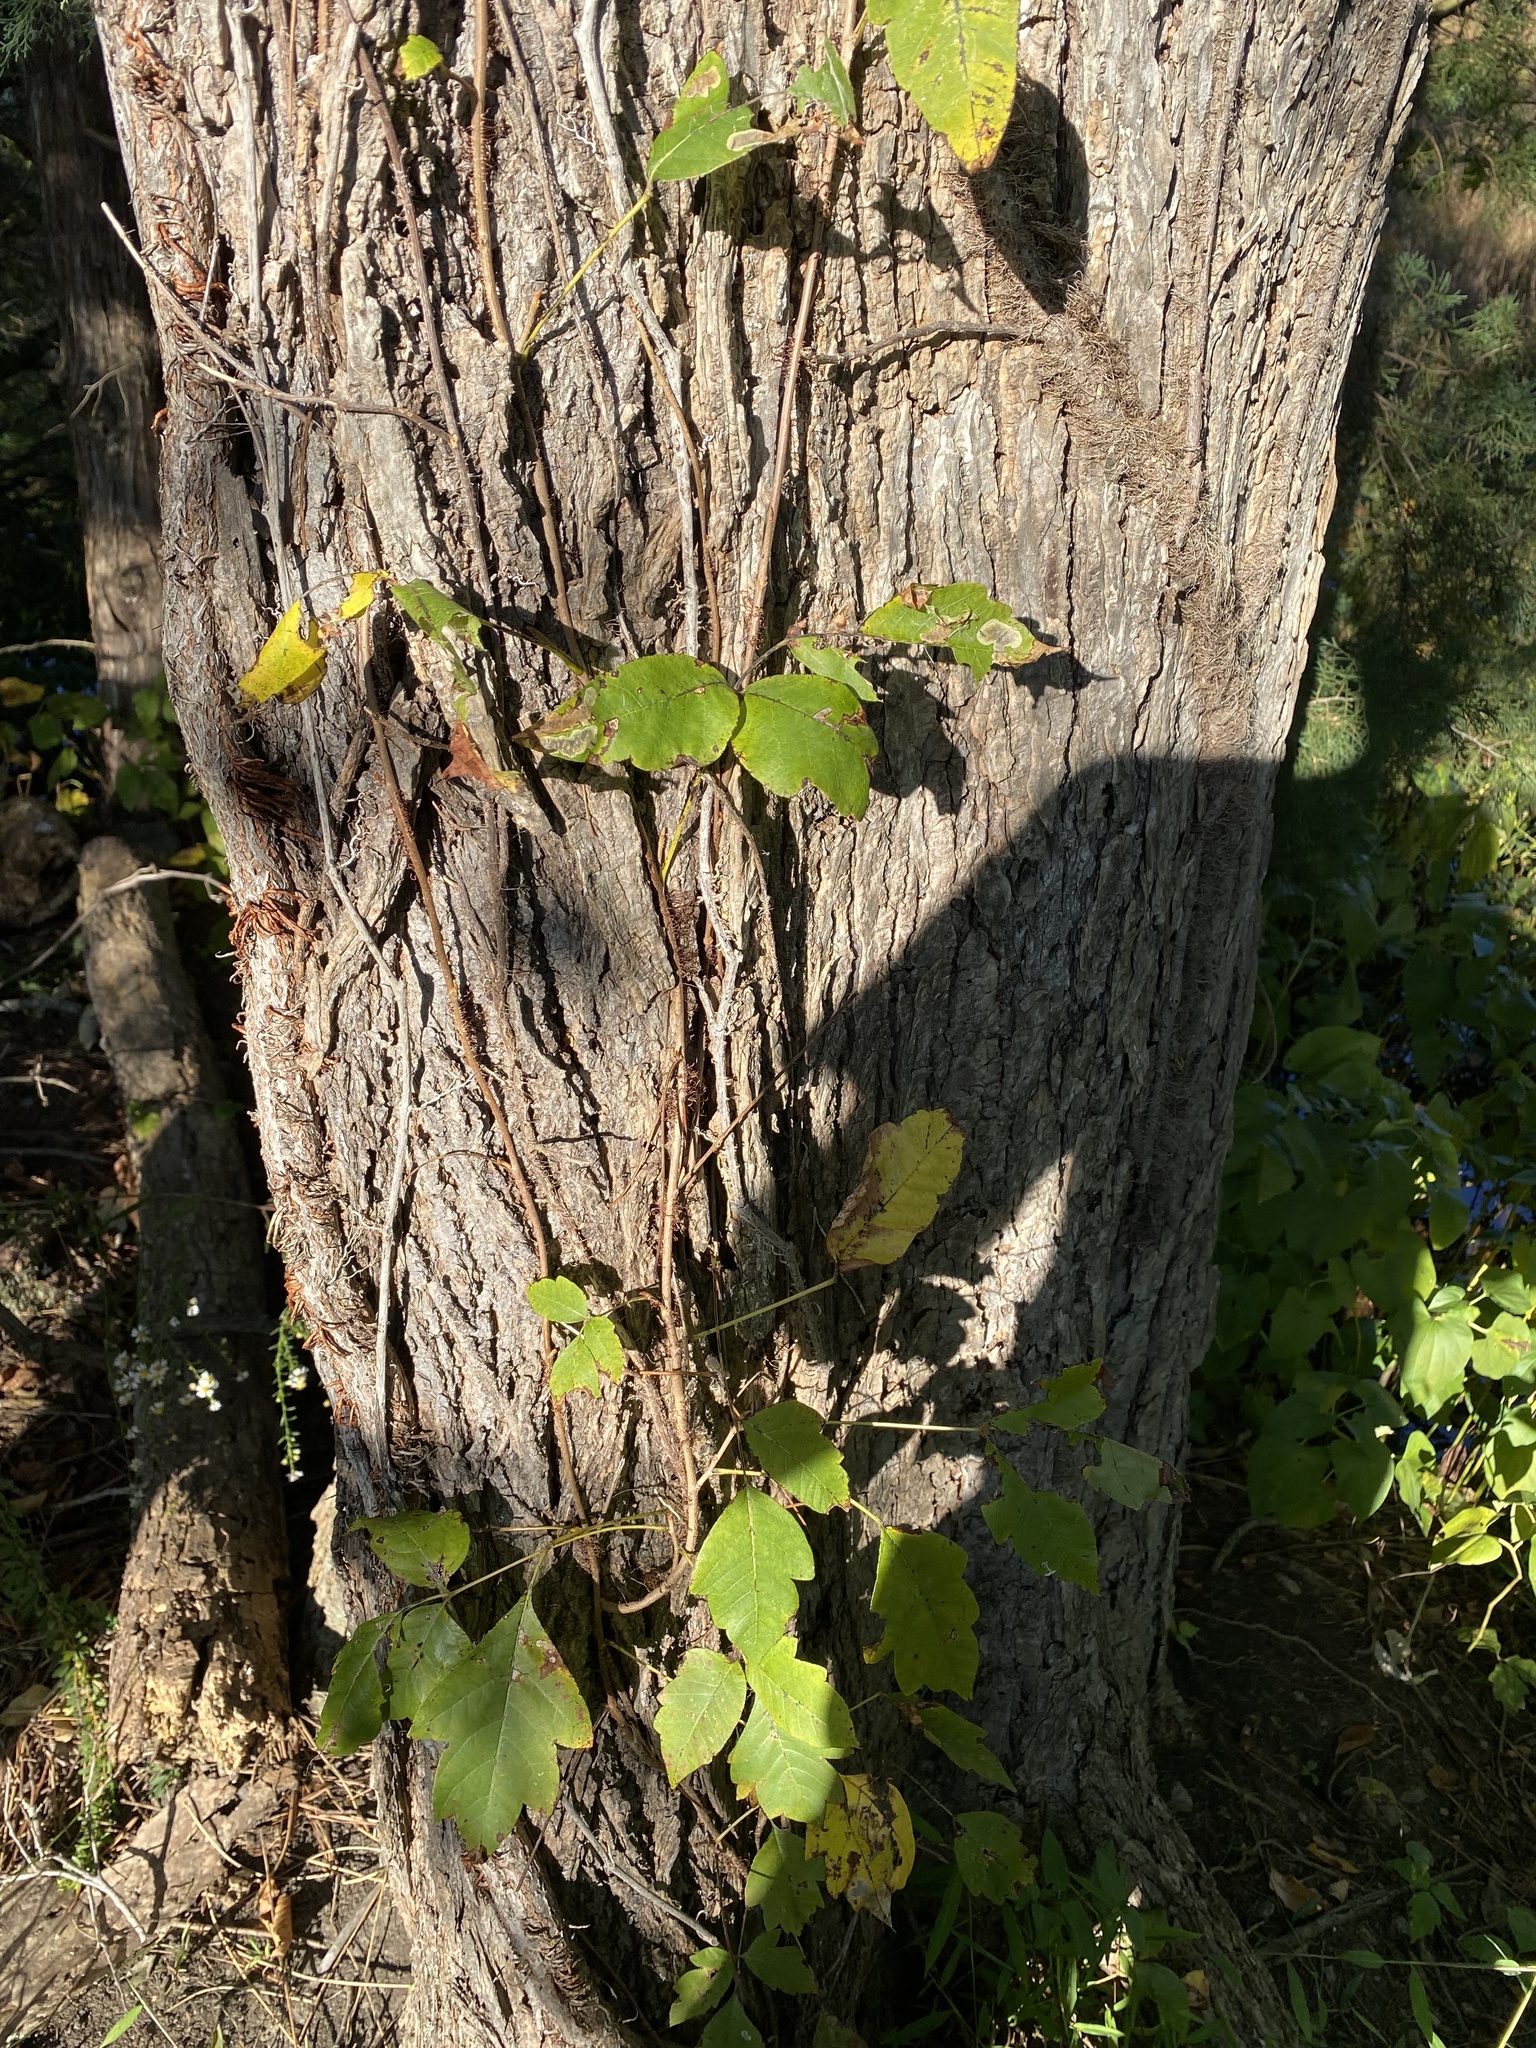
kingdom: Plantae
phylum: Tracheophyta
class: Magnoliopsida
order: Sapindales
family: Anacardiaceae
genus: Toxicodendron
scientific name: Toxicodendron radicans
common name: Poison ivy
